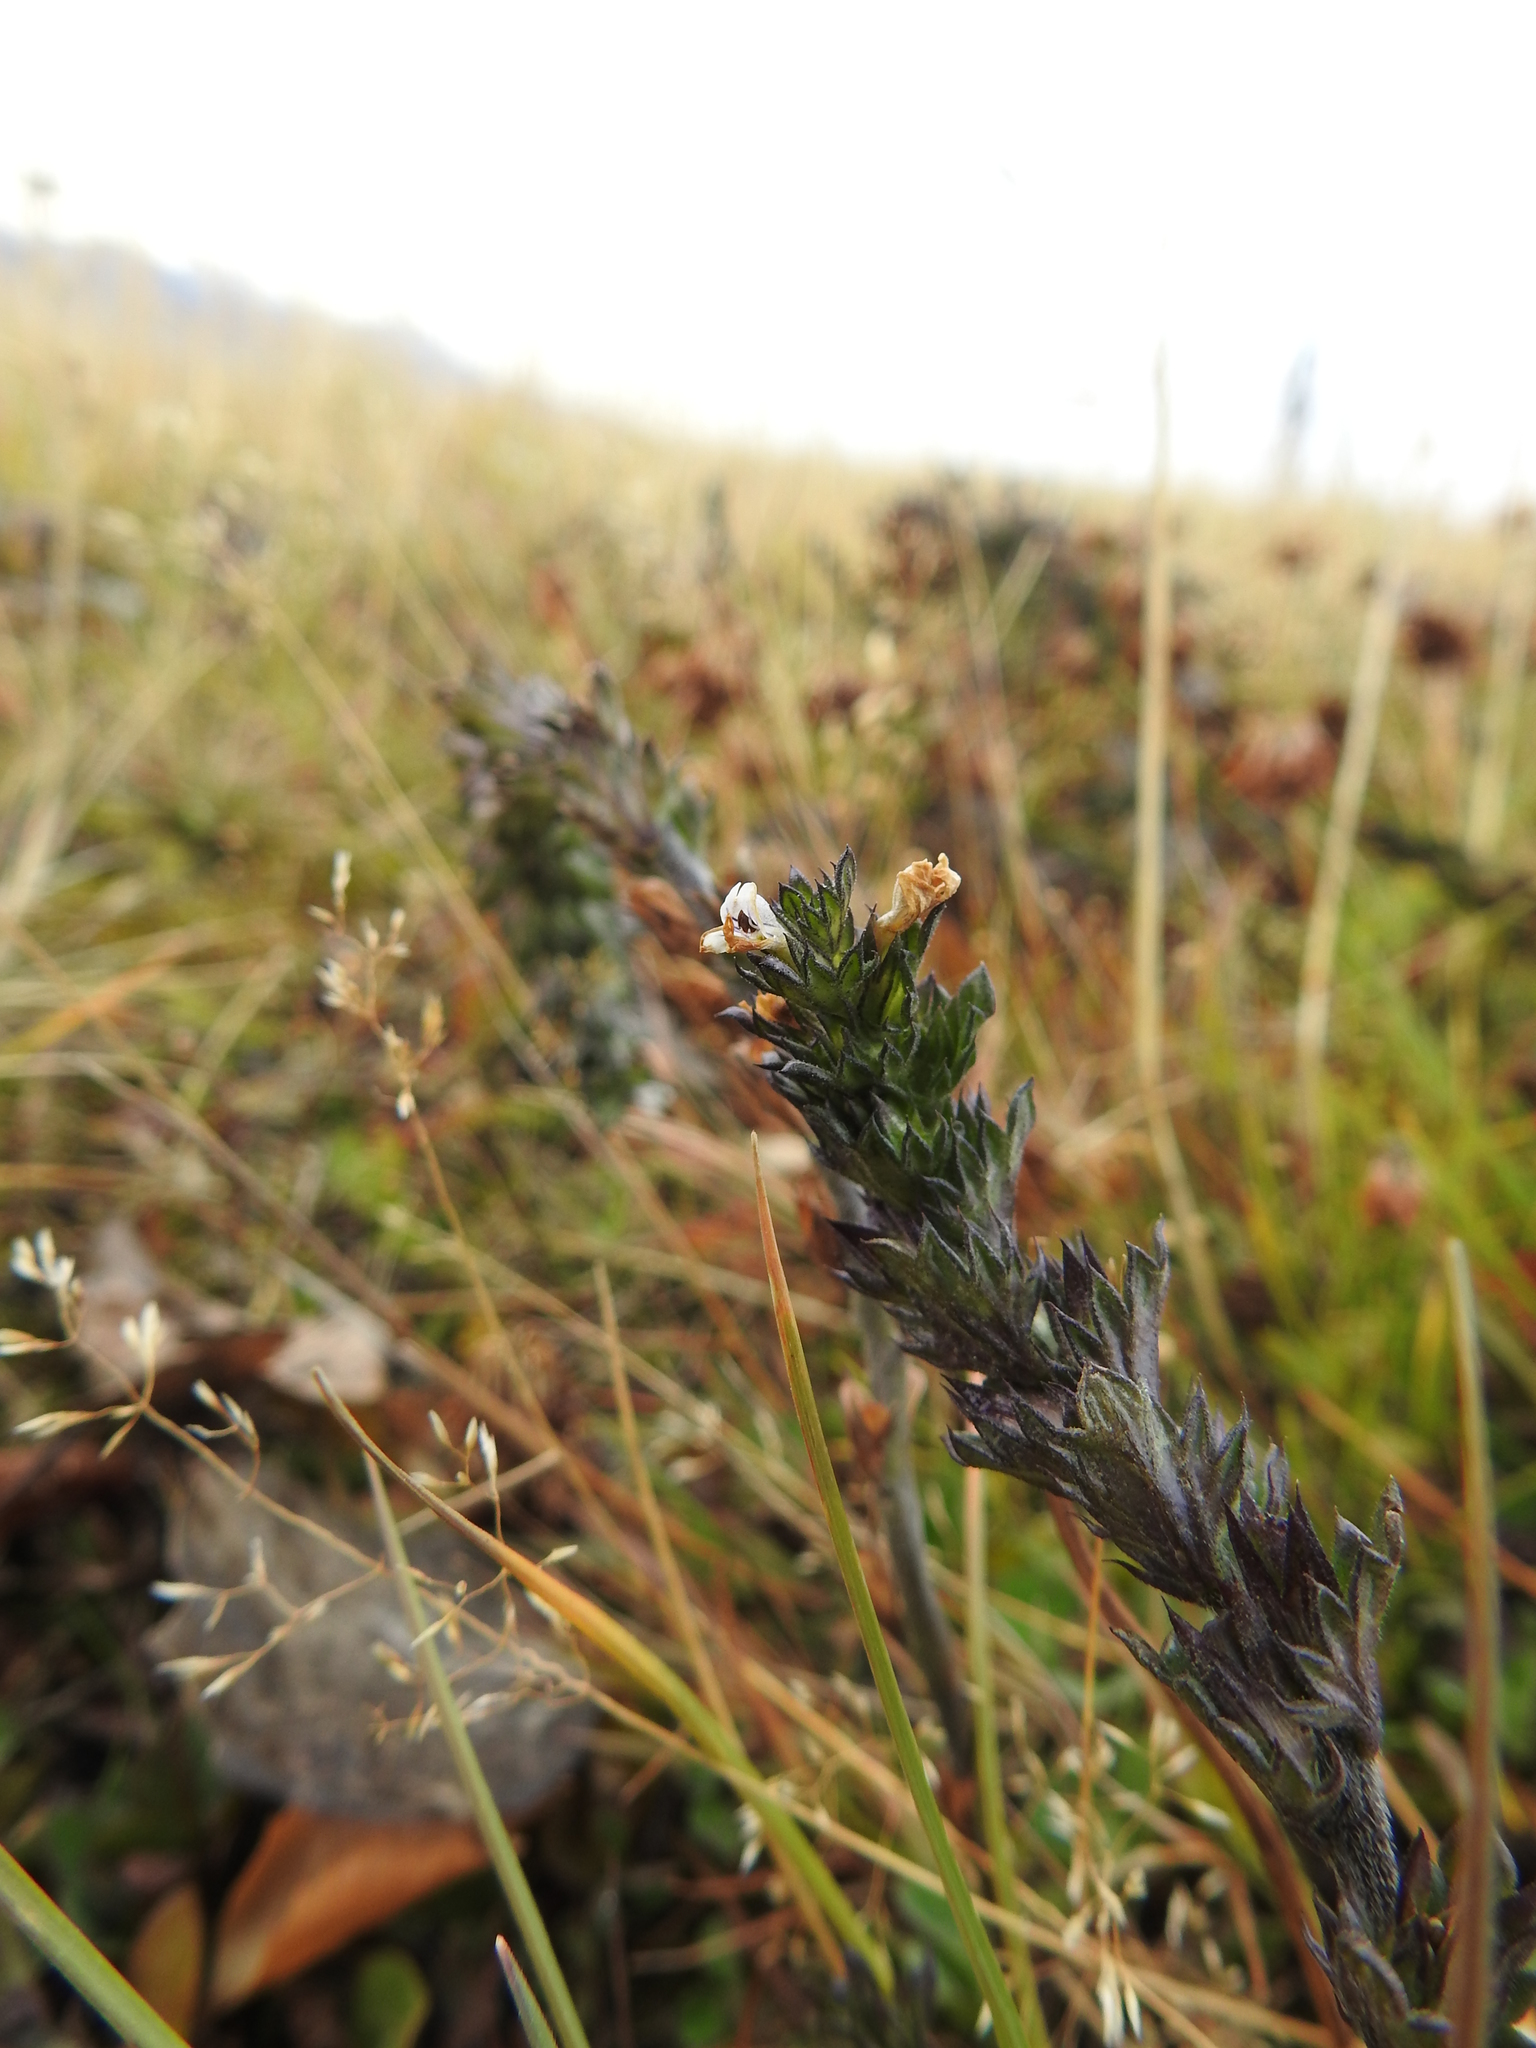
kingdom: Plantae
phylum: Tracheophyta
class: Magnoliopsida
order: Lamiales
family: Orobanchaceae
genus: Euphrasia
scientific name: Euphrasia officinalis
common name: Eyebright
